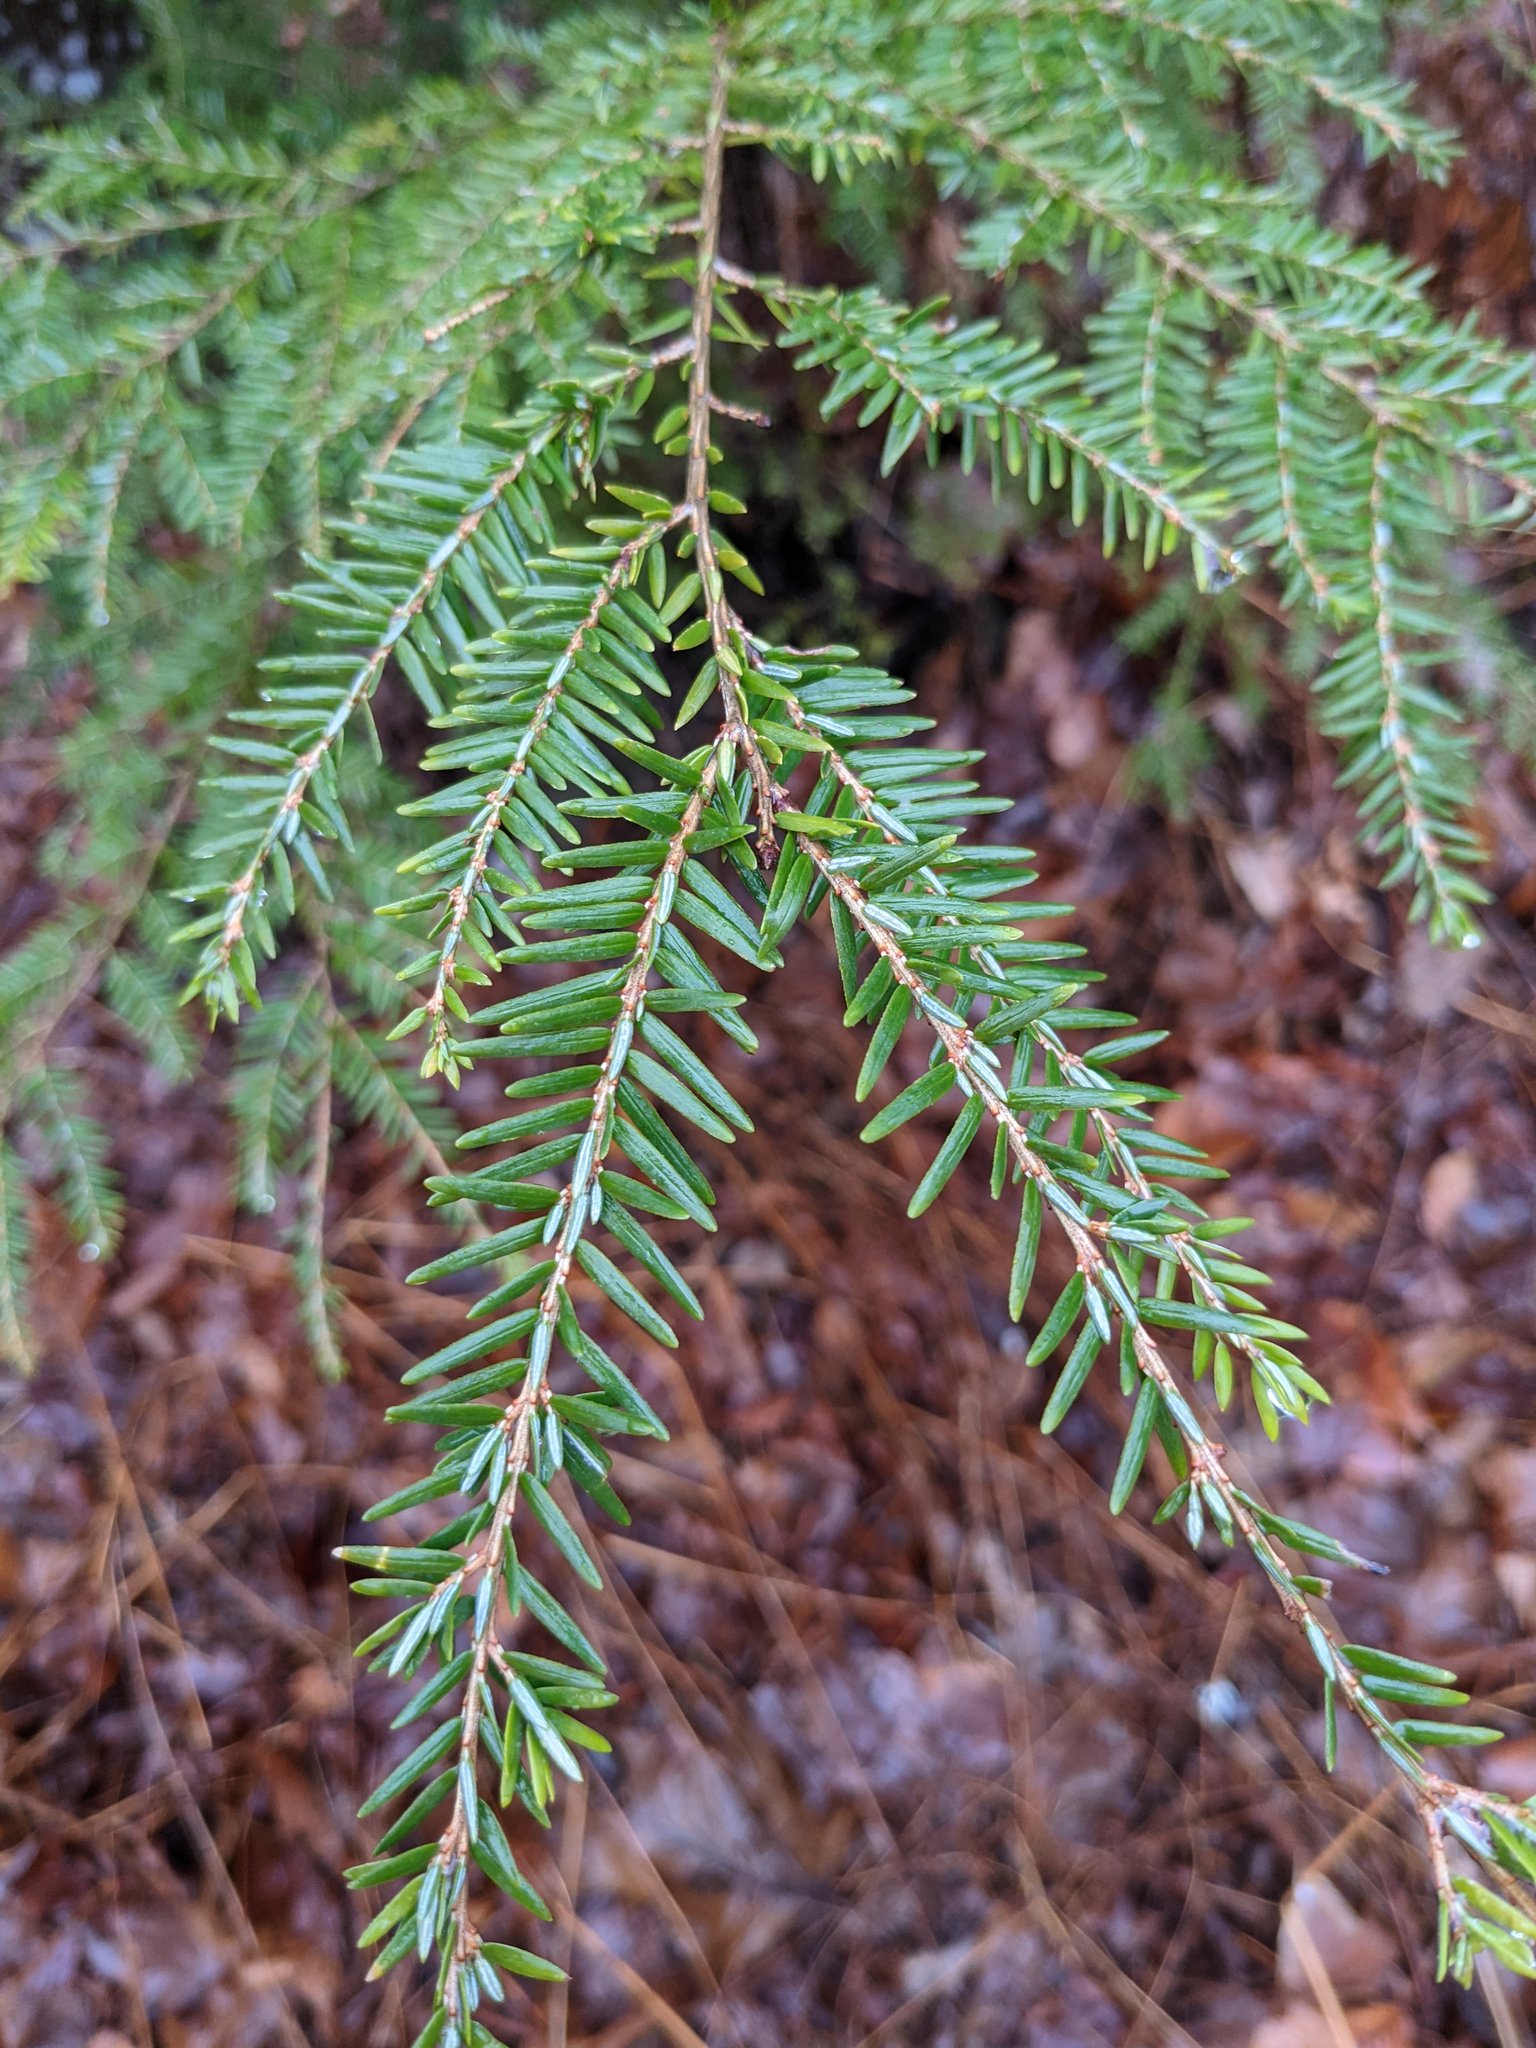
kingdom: Plantae
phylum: Tracheophyta
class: Pinopsida
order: Pinales
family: Pinaceae
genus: Tsuga
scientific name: Tsuga canadensis
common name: Eastern hemlock
